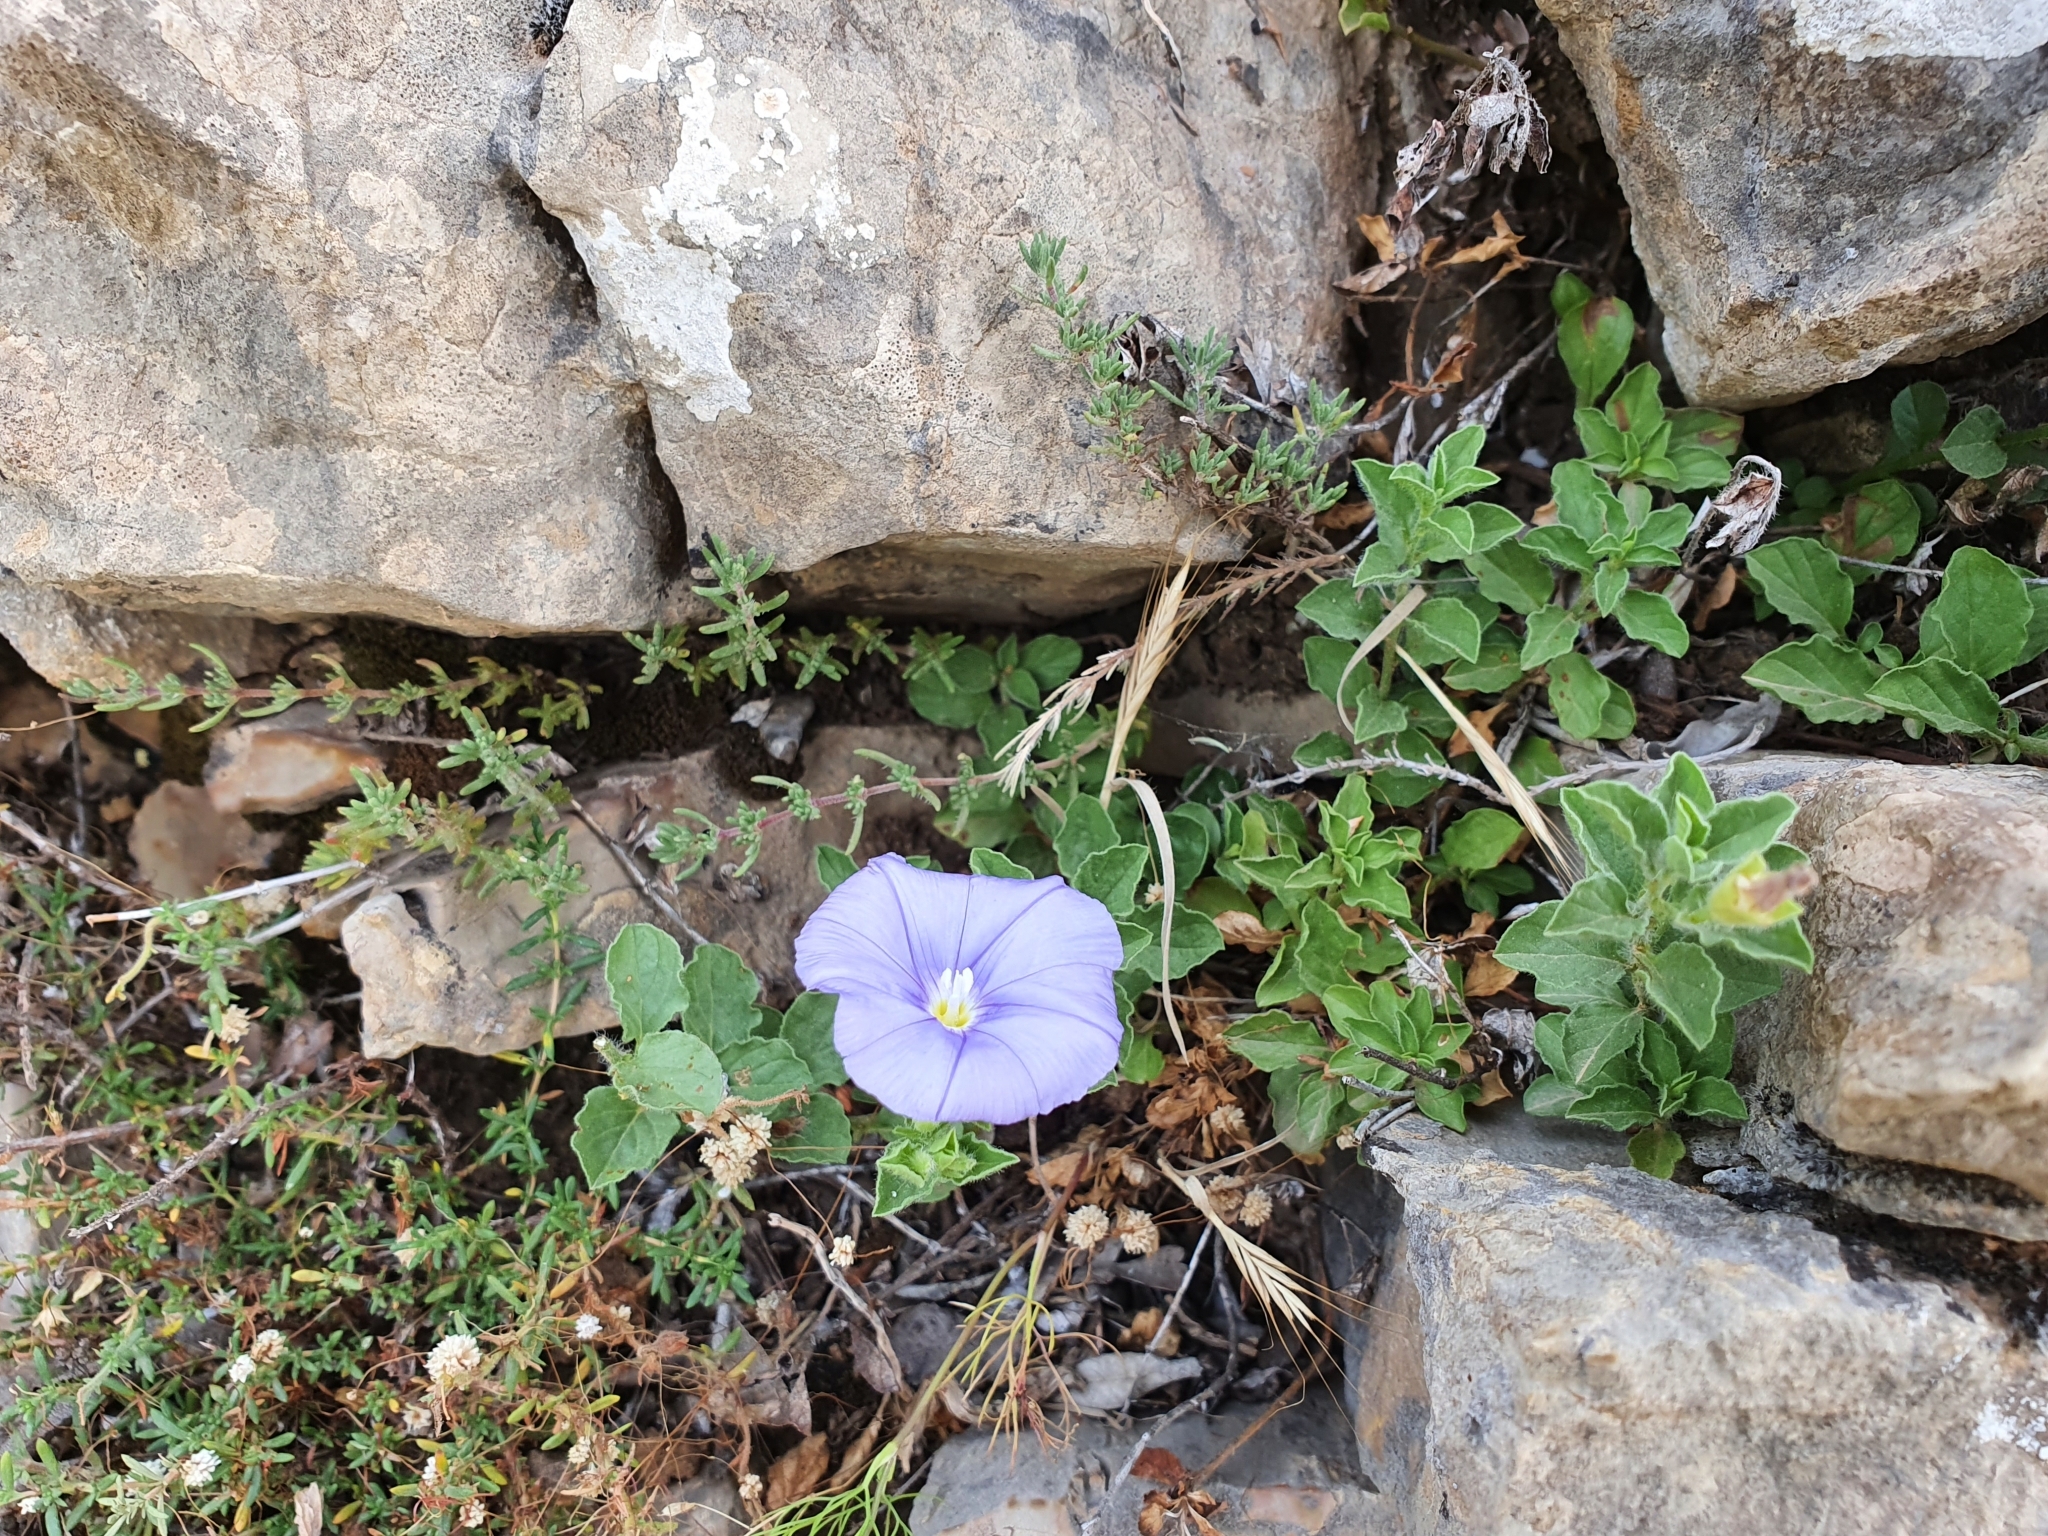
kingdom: Plantae
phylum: Tracheophyta
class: Magnoliopsida
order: Solanales
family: Convolvulaceae
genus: Convolvulus
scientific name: Convolvulus sabatius
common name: Ground blue-convolvulus
